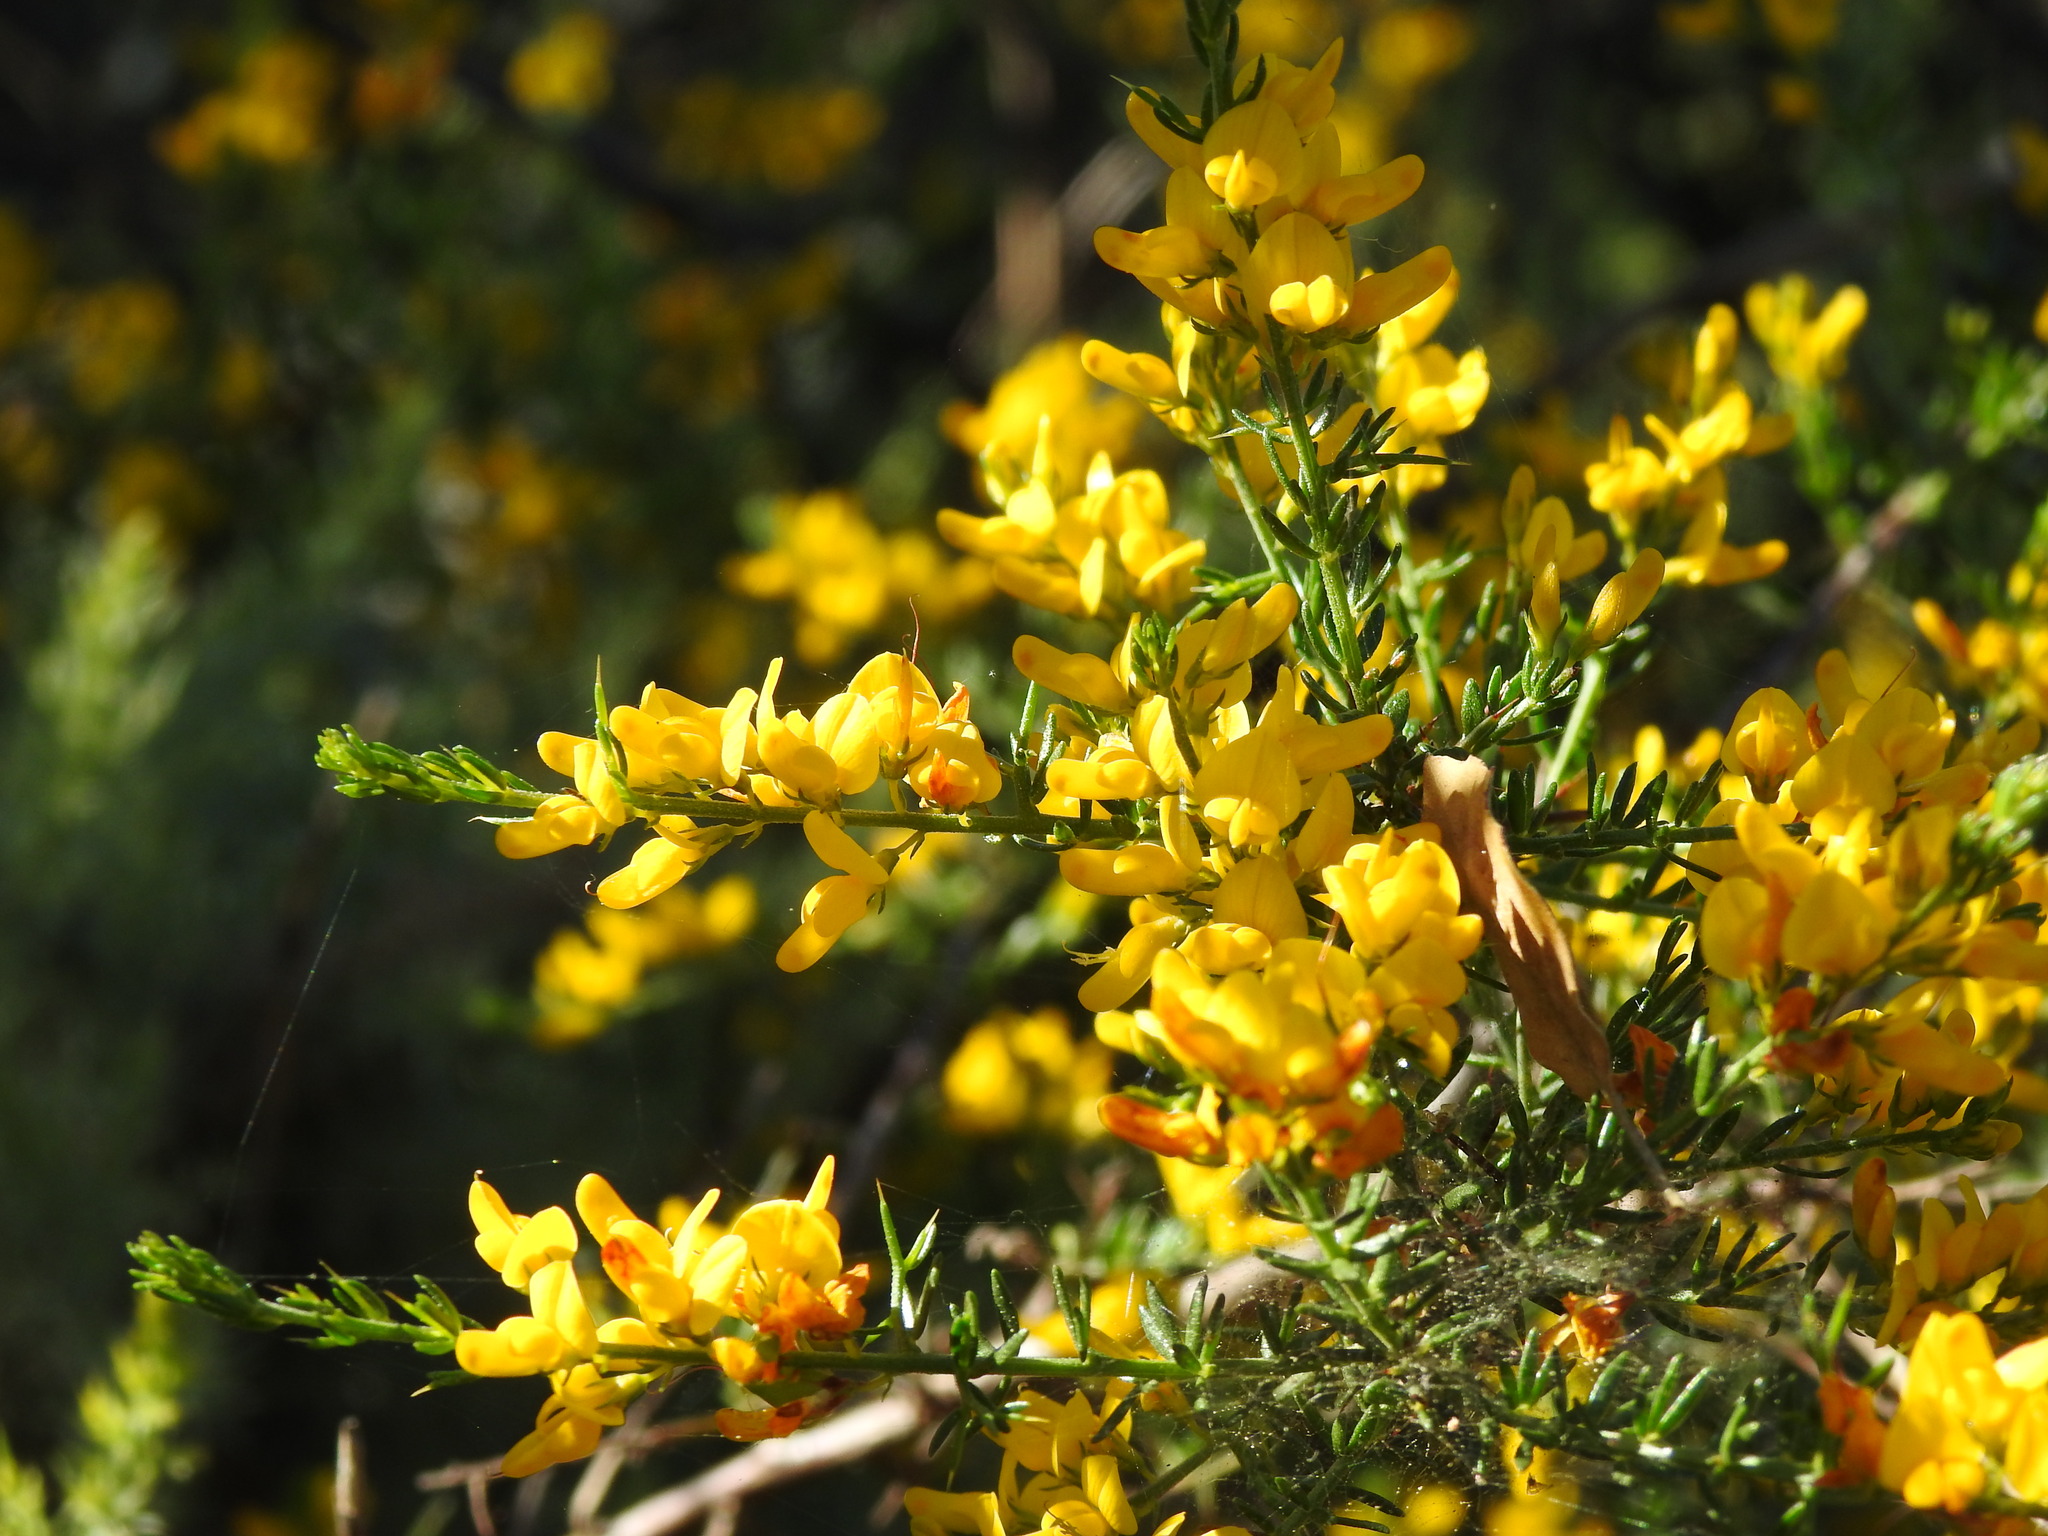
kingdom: Plantae
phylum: Tracheophyta
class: Magnoliopsida
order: Fabales
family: Fabaceae
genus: Genista
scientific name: Genista triacanthos
